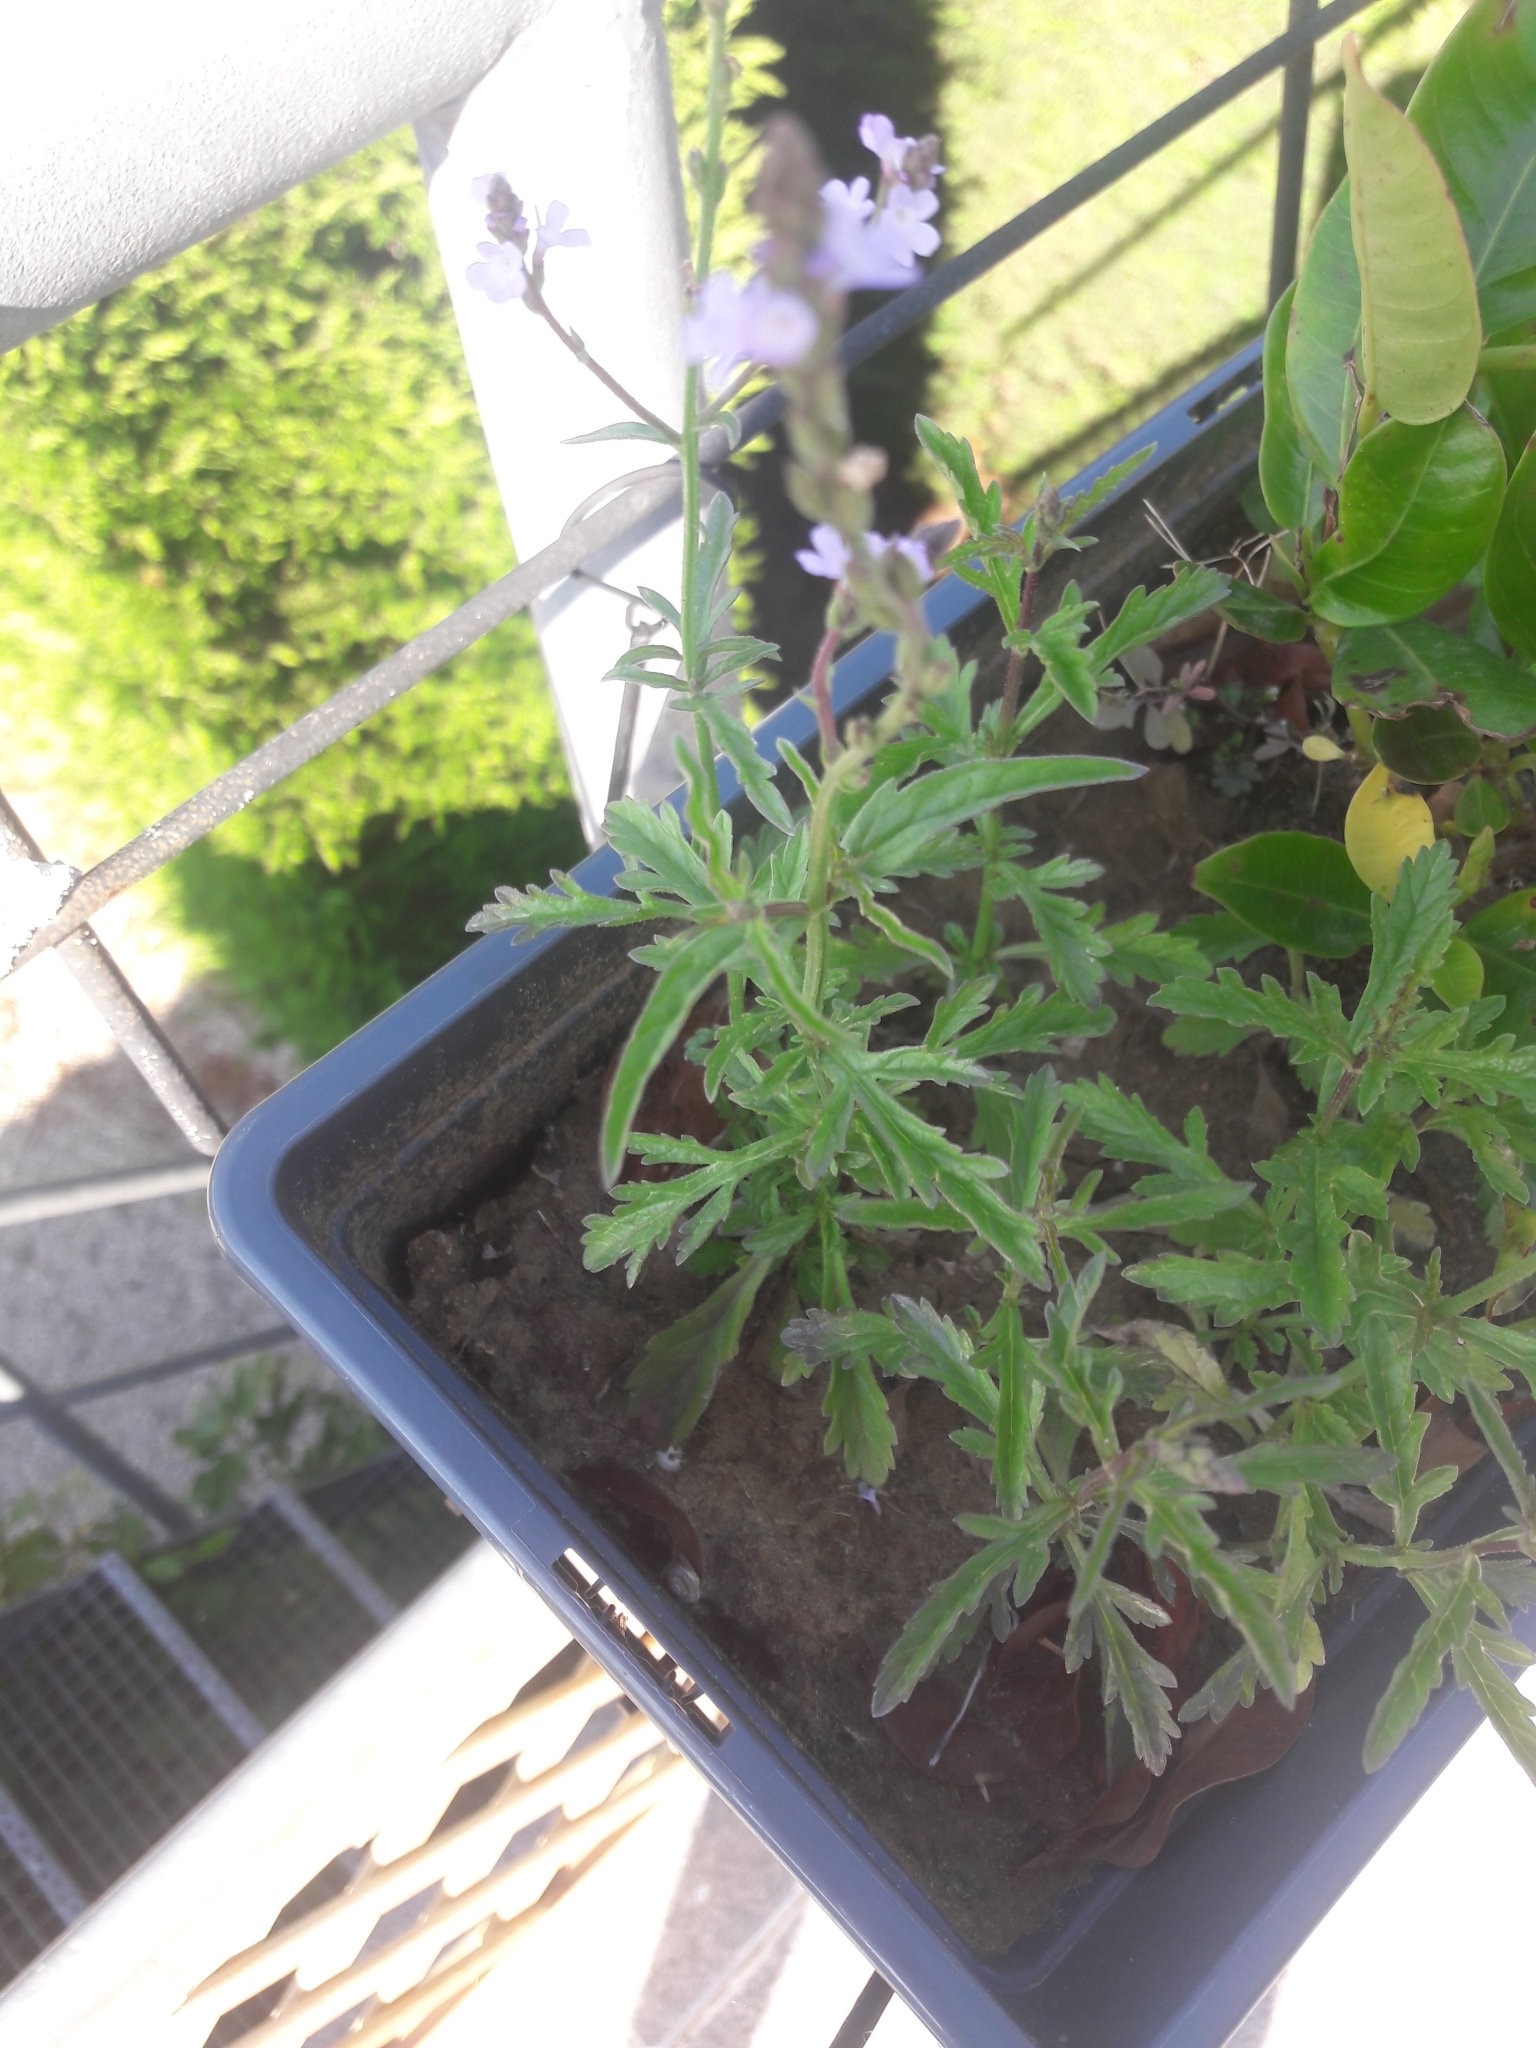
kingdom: Plantae
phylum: Tracheophyta
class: Magnoliopsida
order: Lamiales
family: Verbenaceae
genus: Verbena
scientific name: Verbena officinalis
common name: Vervain
